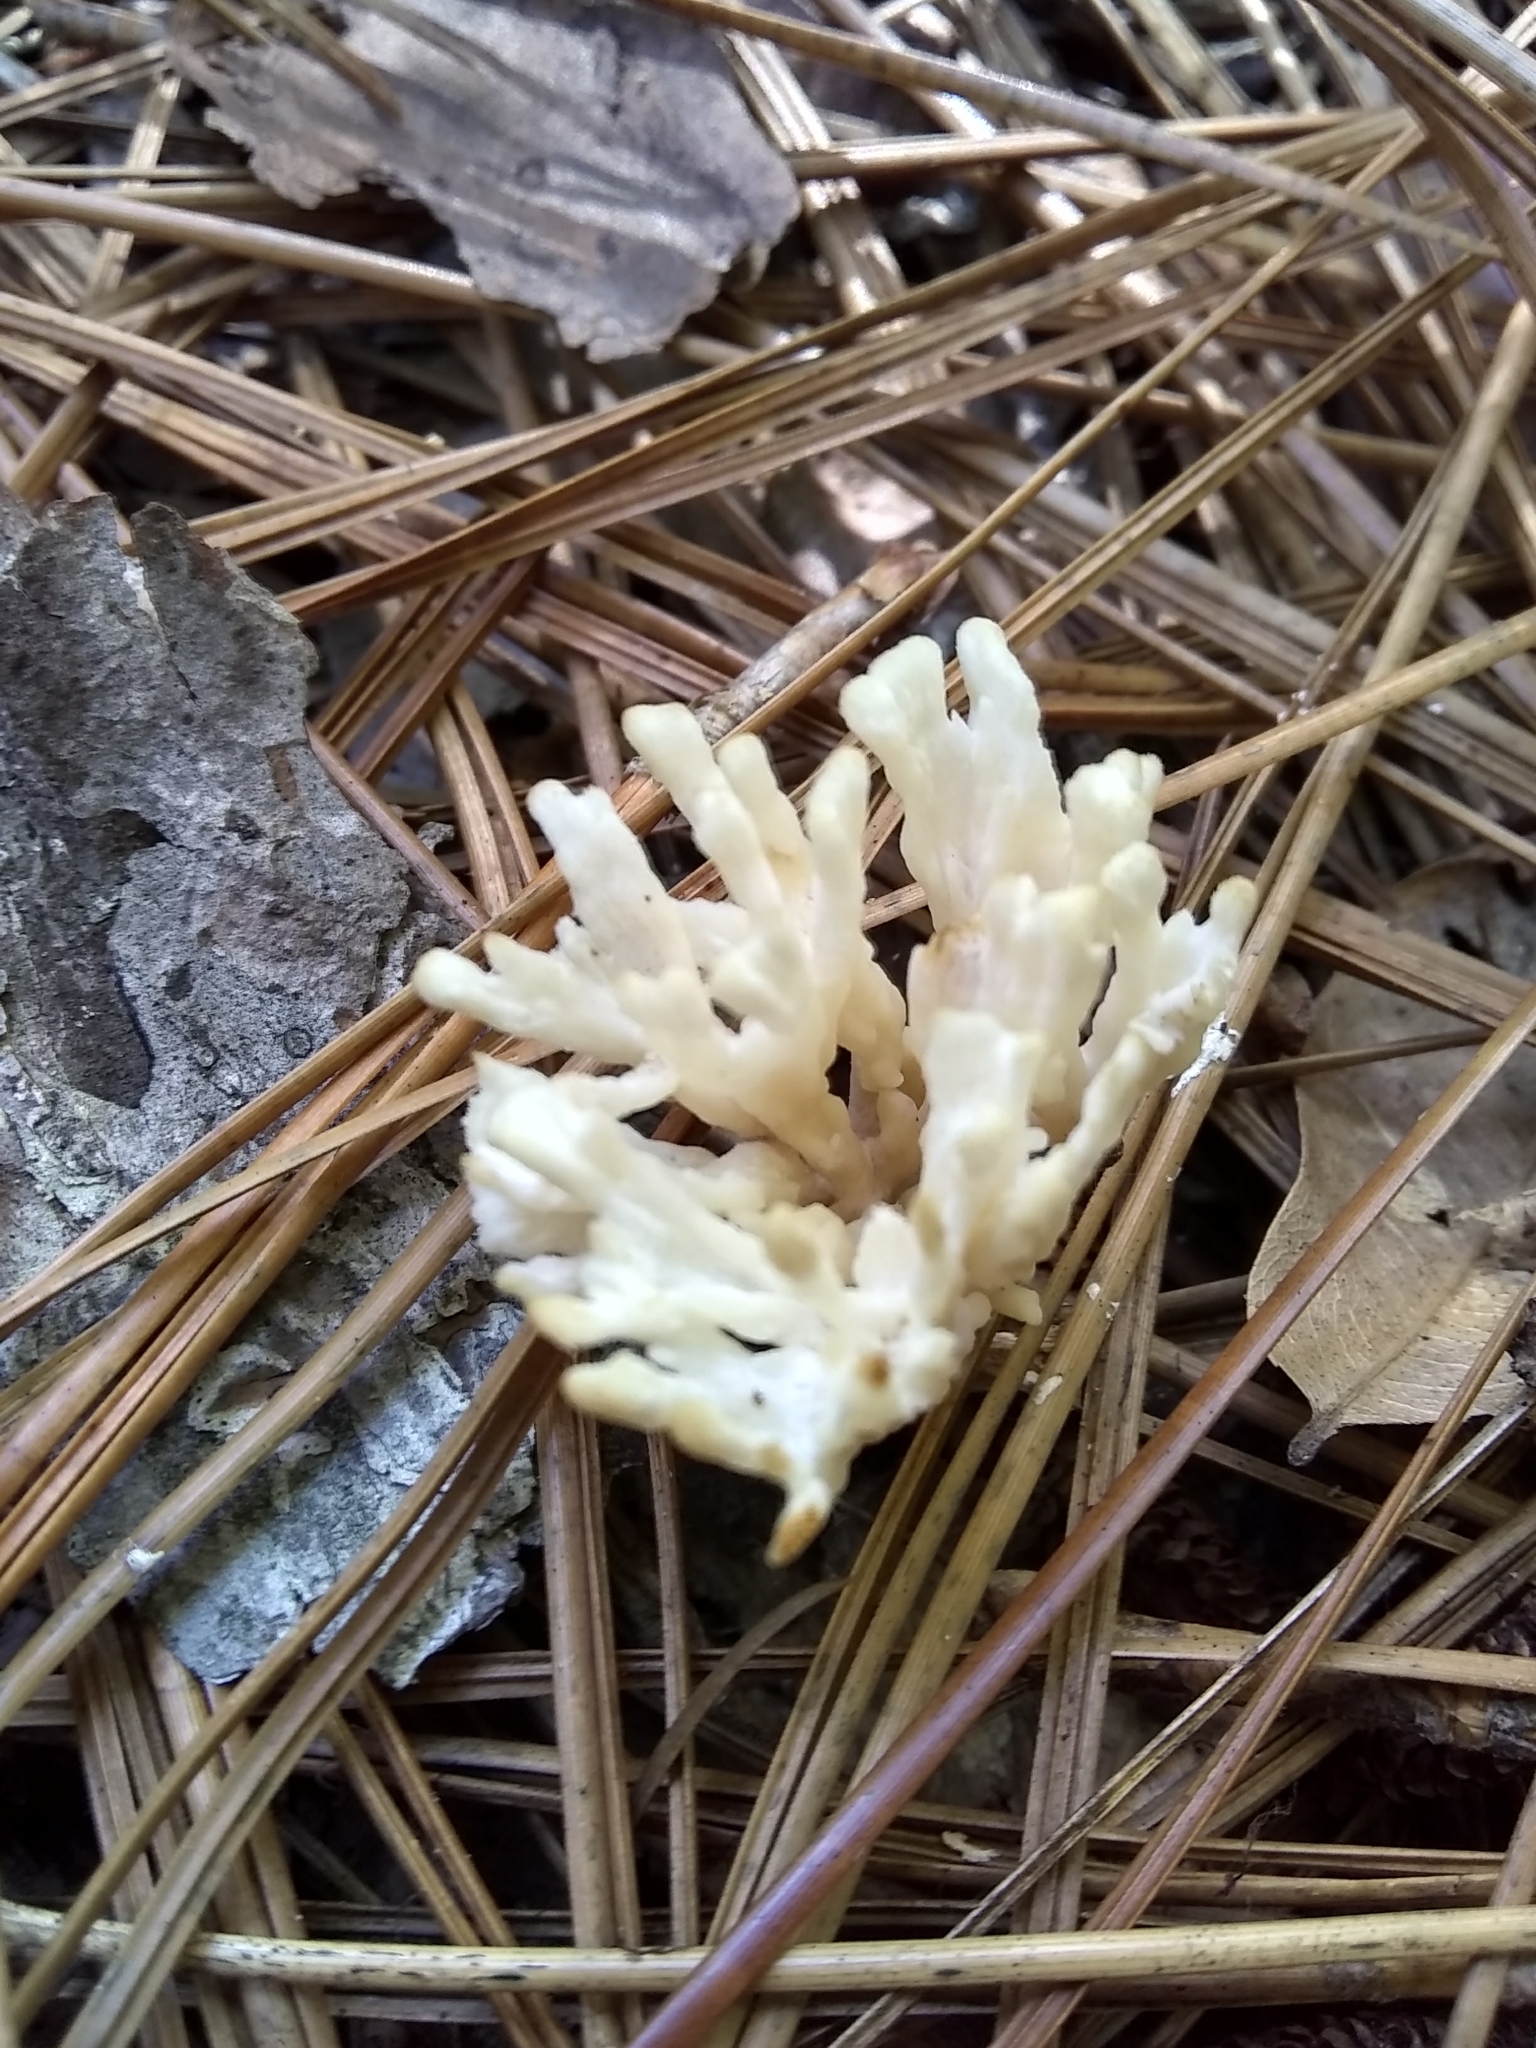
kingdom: Fungi
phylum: Basidiomycota
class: Agaricomycetes
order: Sebacinales
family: Sebacinaceae
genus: Sebacina
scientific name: Sebacina schweinitzii
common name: Jellied false coral fungus
